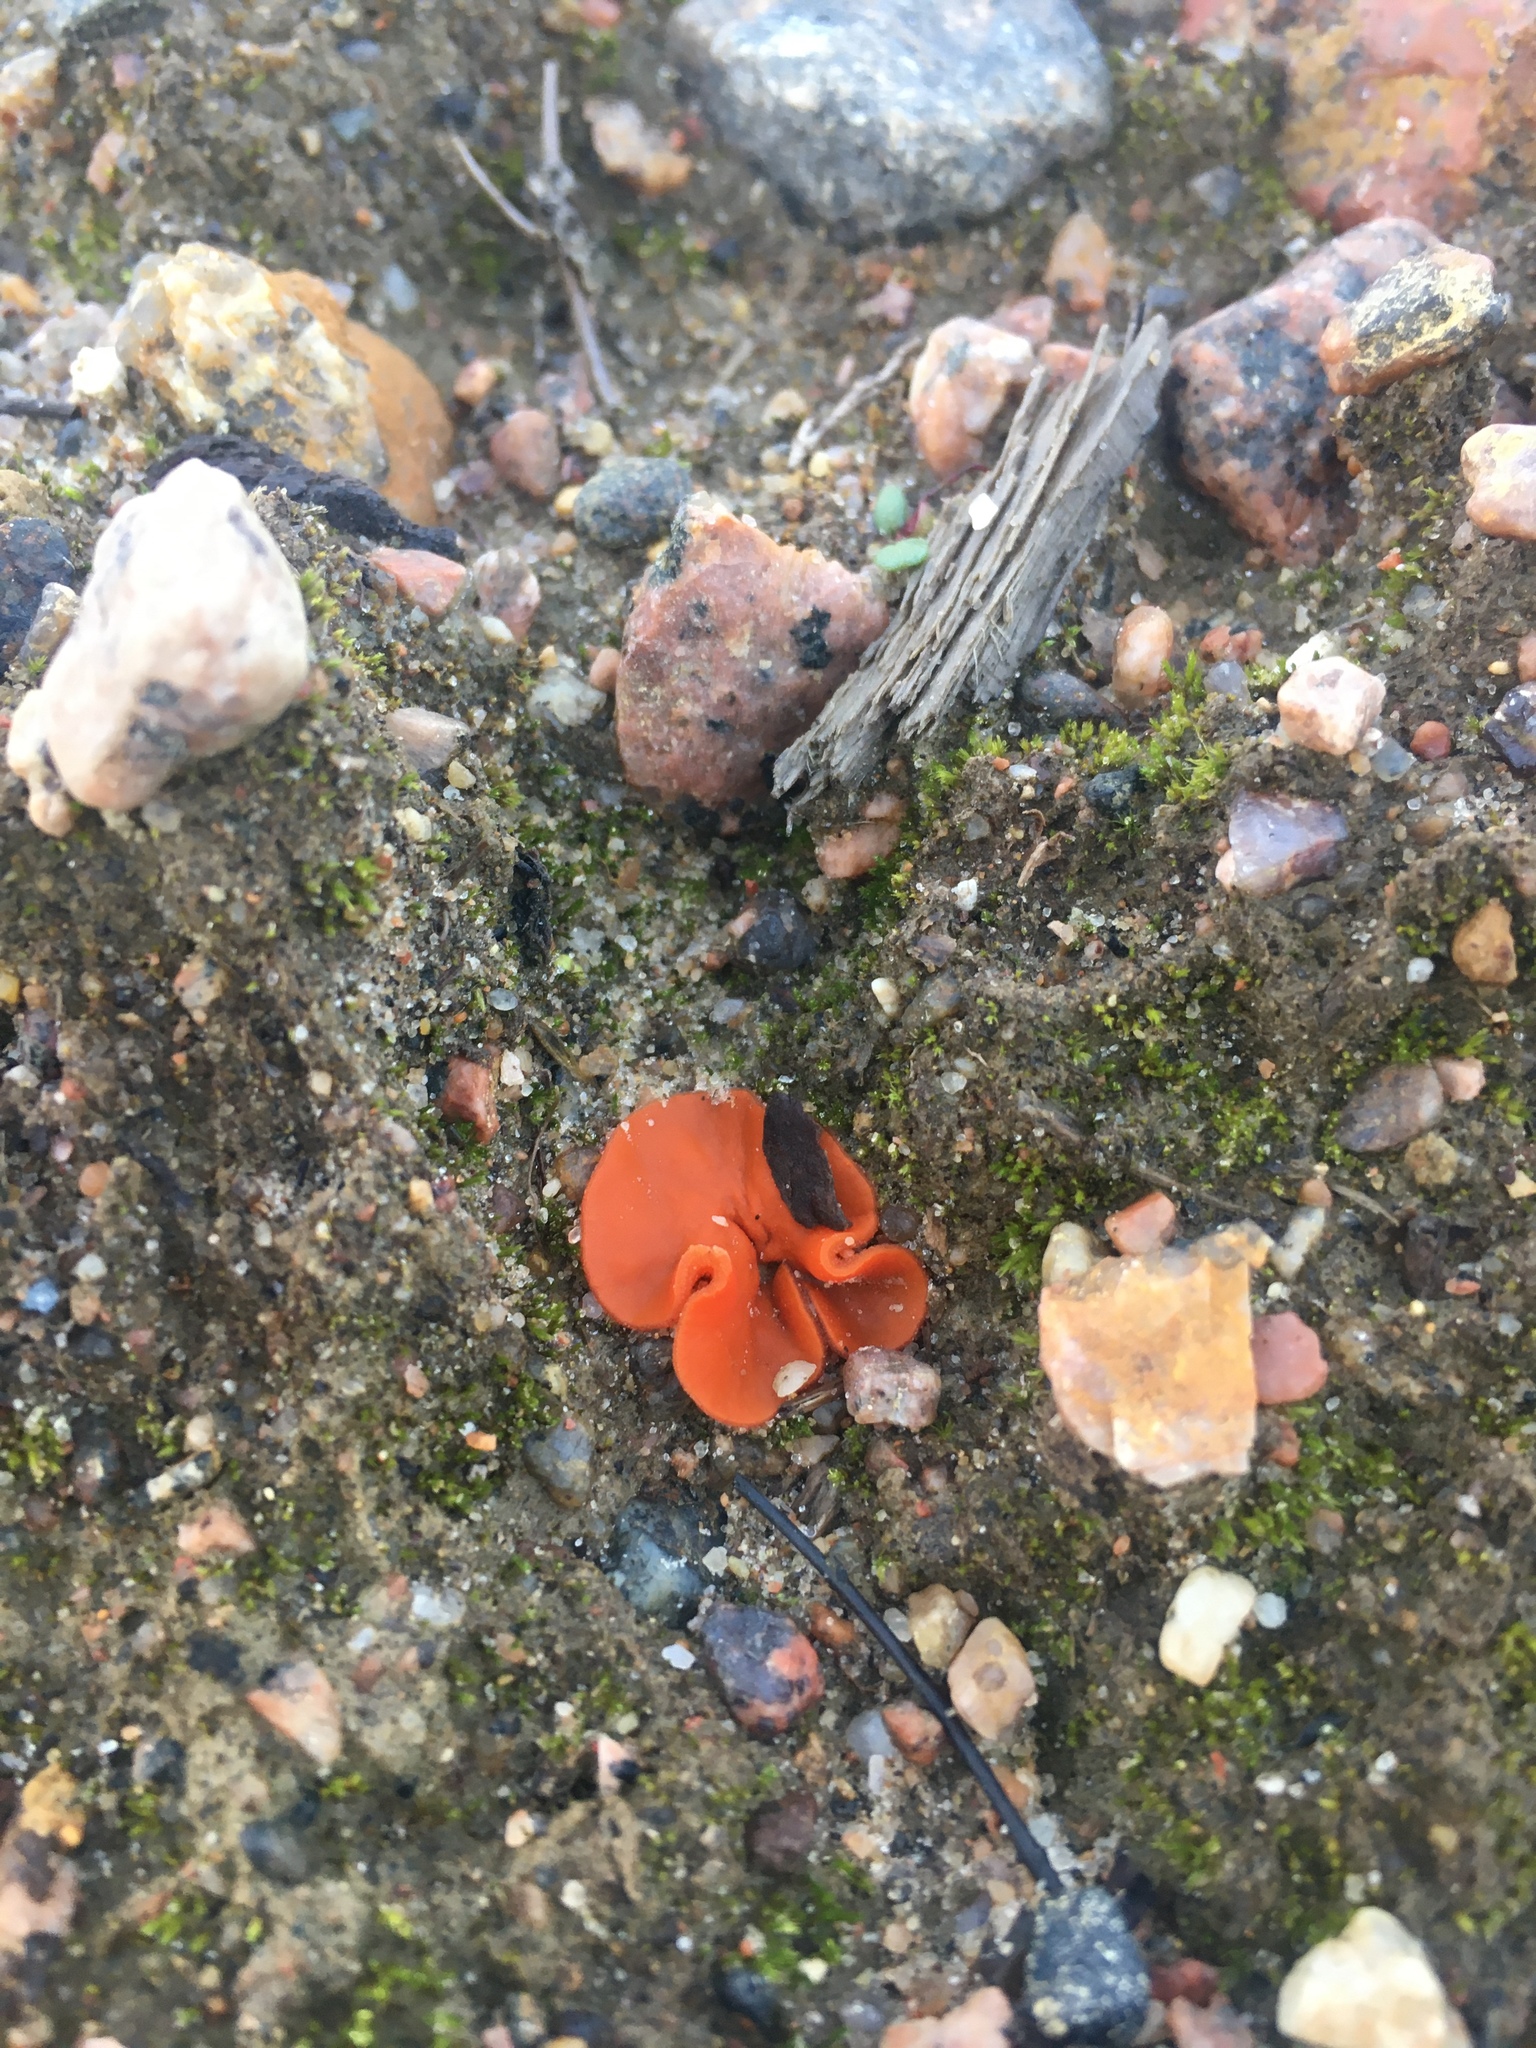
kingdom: Fungi
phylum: Ascomycota
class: Pezizomycetes
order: Pezizales
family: Pyronemataceae
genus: Aleuria
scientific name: Aleuria aurantia
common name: Orange peel fungus
